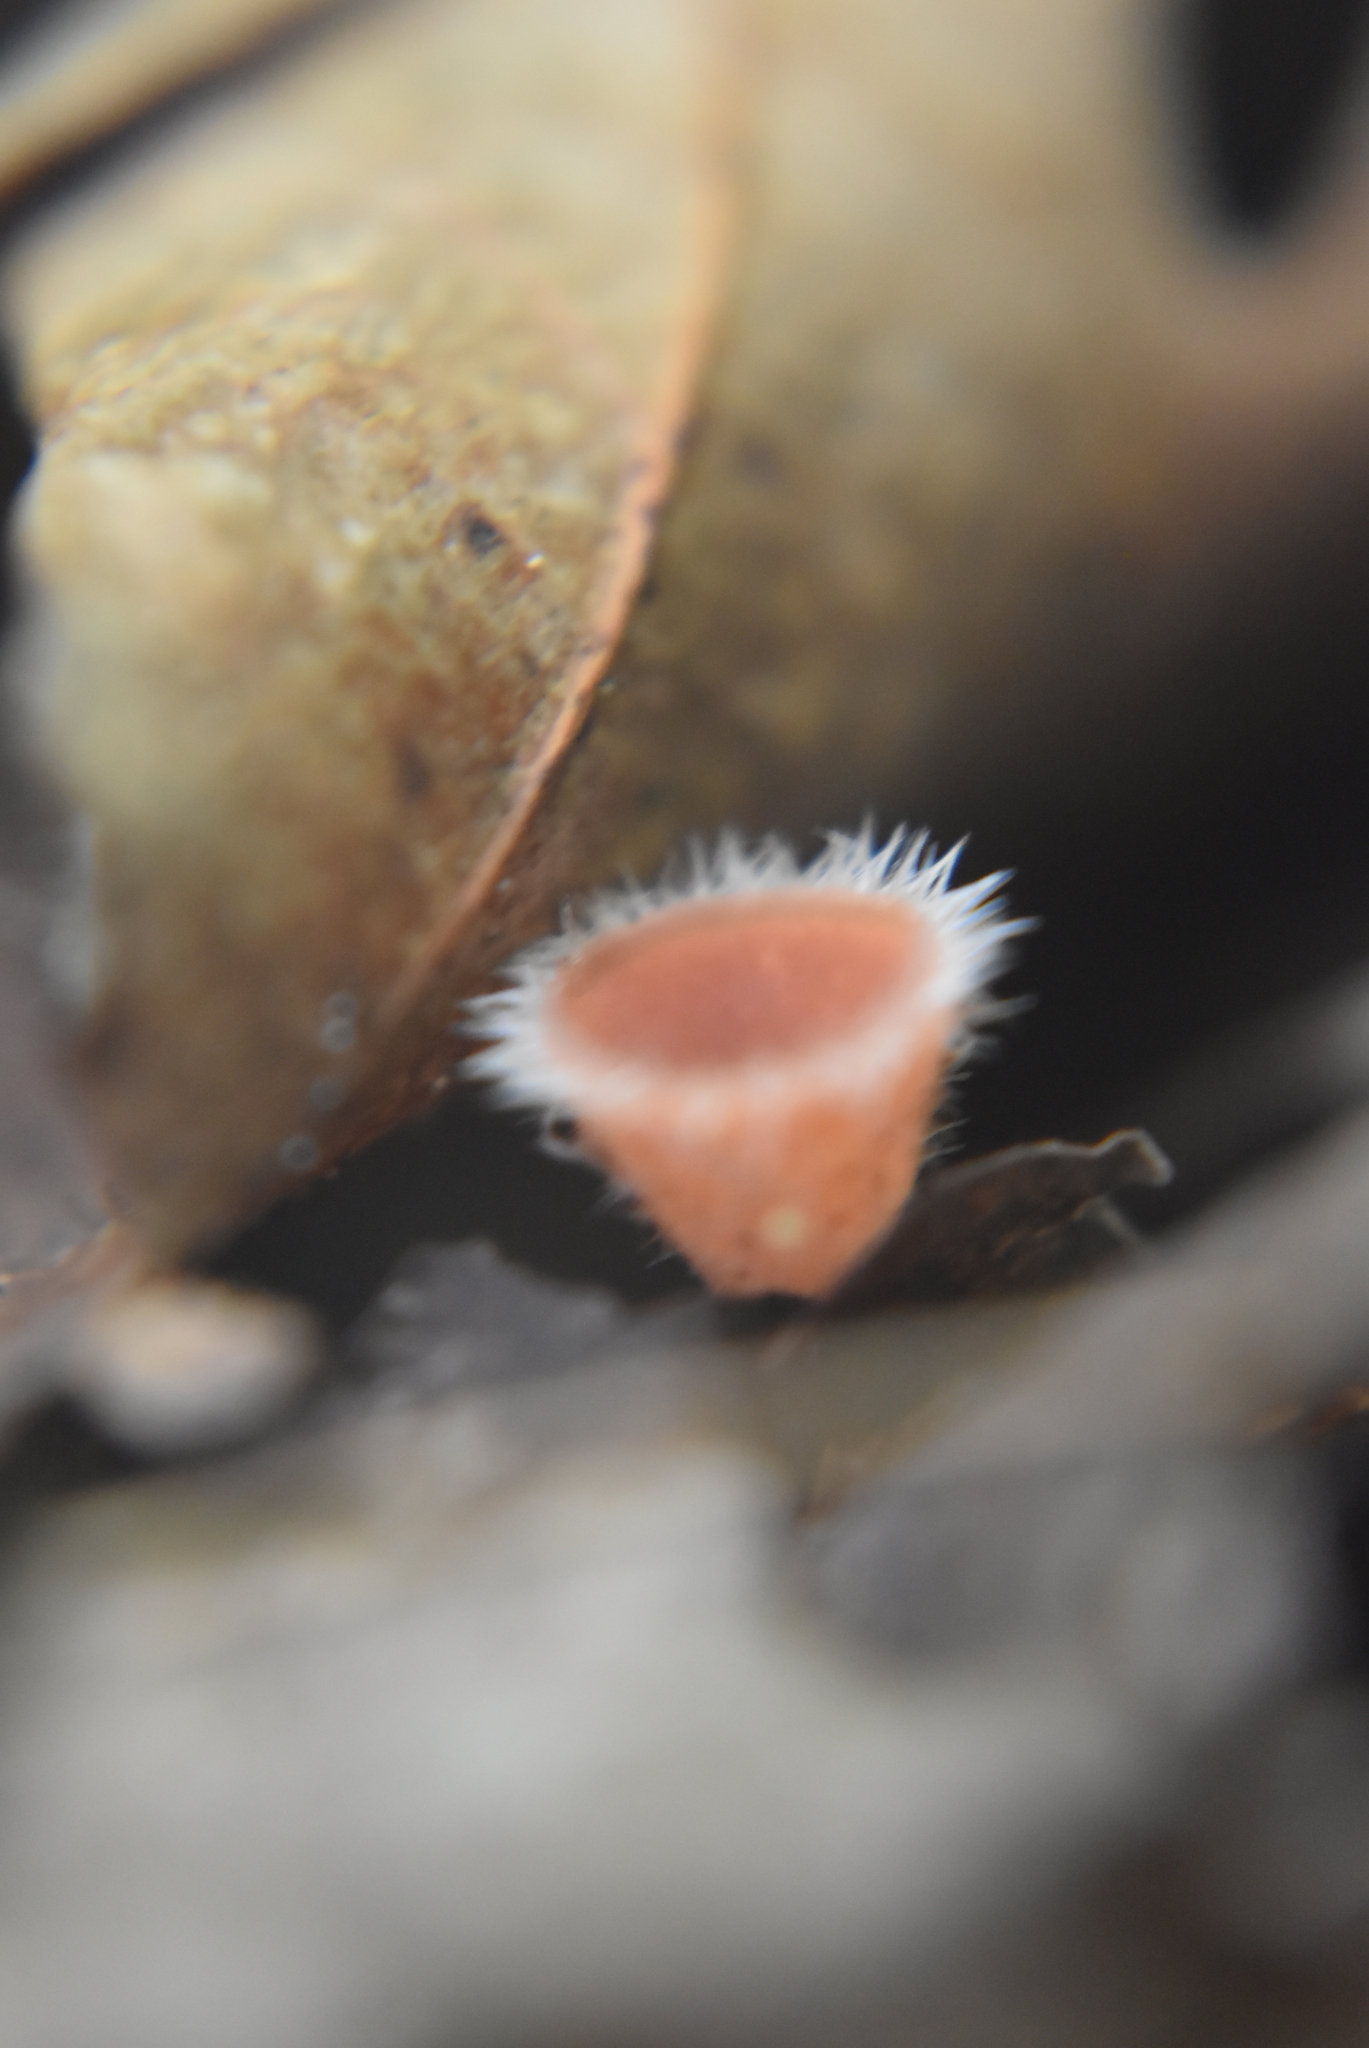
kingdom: Fungi
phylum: Ascomycota
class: Pezizomycetes
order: Pezizales
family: Sarcoscyphaceae
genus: Microstoma
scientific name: Microstoma floccosum
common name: Pink fringed faery cup
